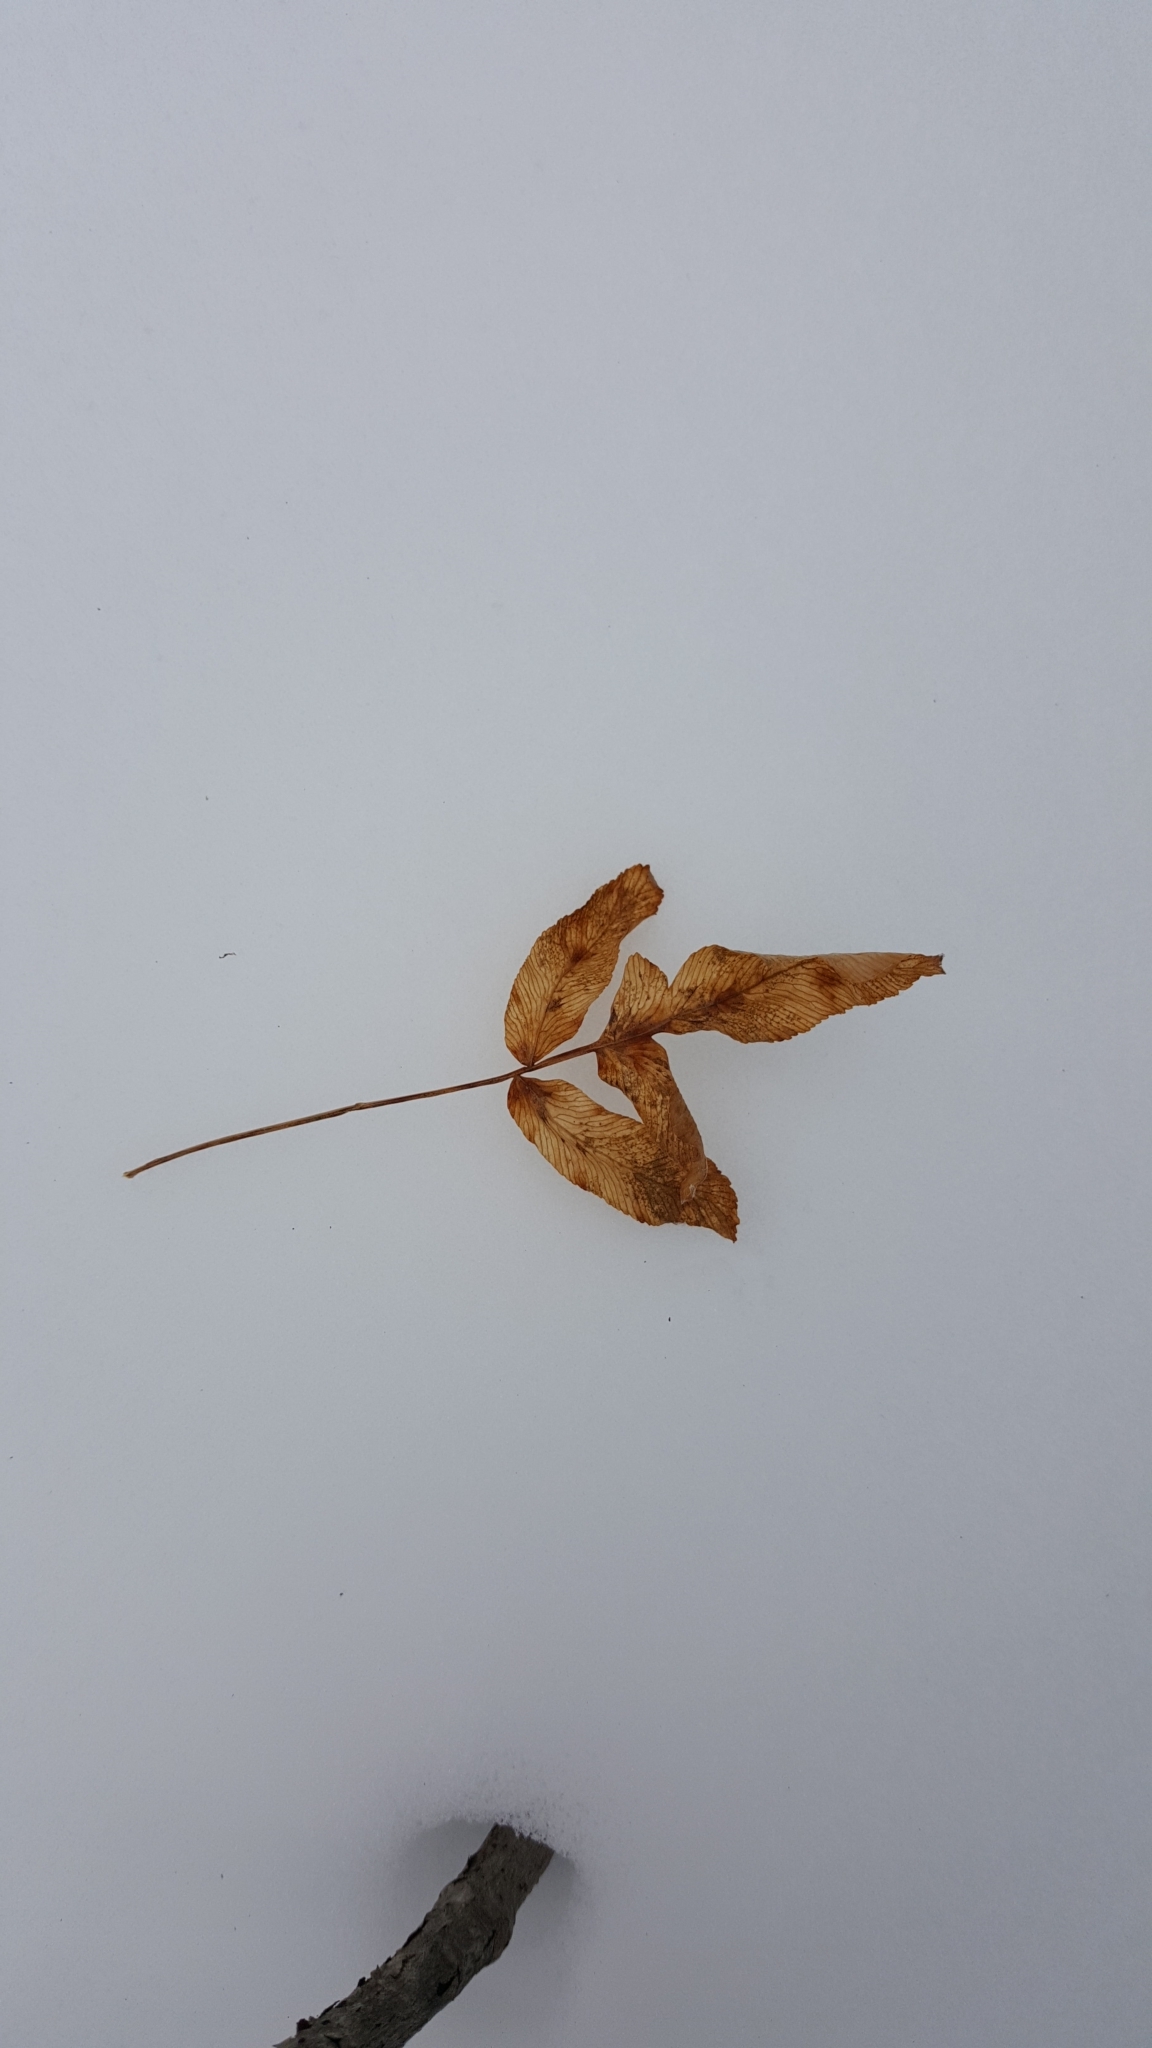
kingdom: Plantae
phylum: Tracheophyta
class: Polypodiopsida
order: Osmundales
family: Osmundaceae
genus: Osmunda
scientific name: Osmunda spectabilis
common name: American royal fern
